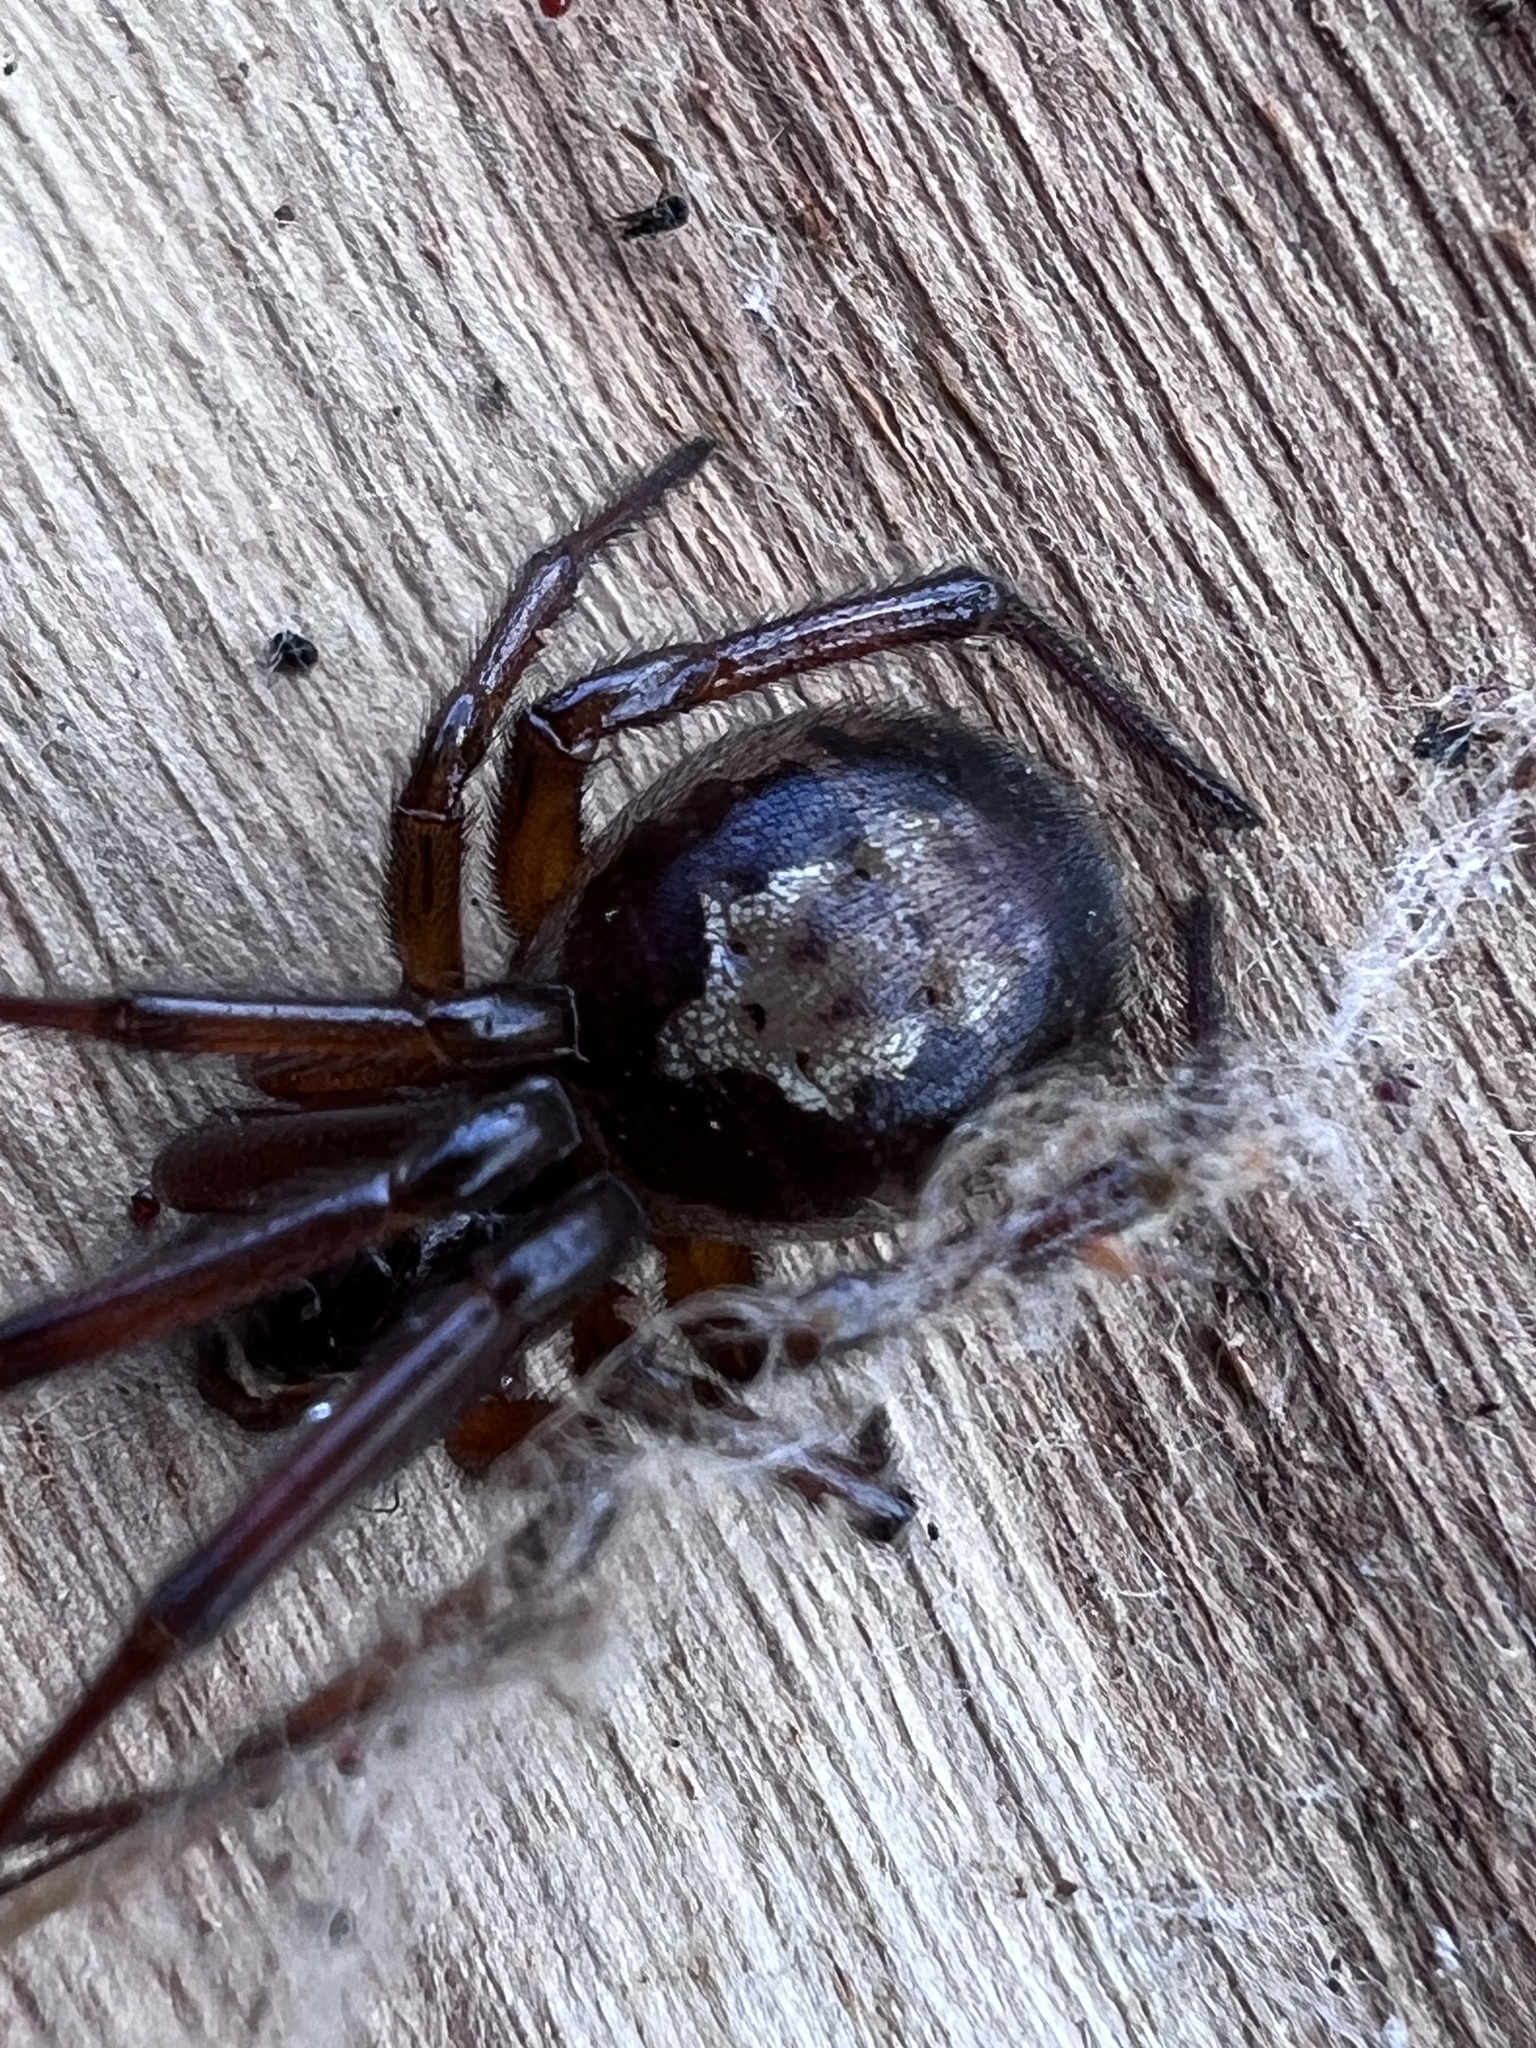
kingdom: Animalia
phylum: Arthropoda
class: Arachnida
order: Araneae
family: Theridiidae
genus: Steatoda
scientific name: Steatoda nobilis
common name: Cobweb weaver
